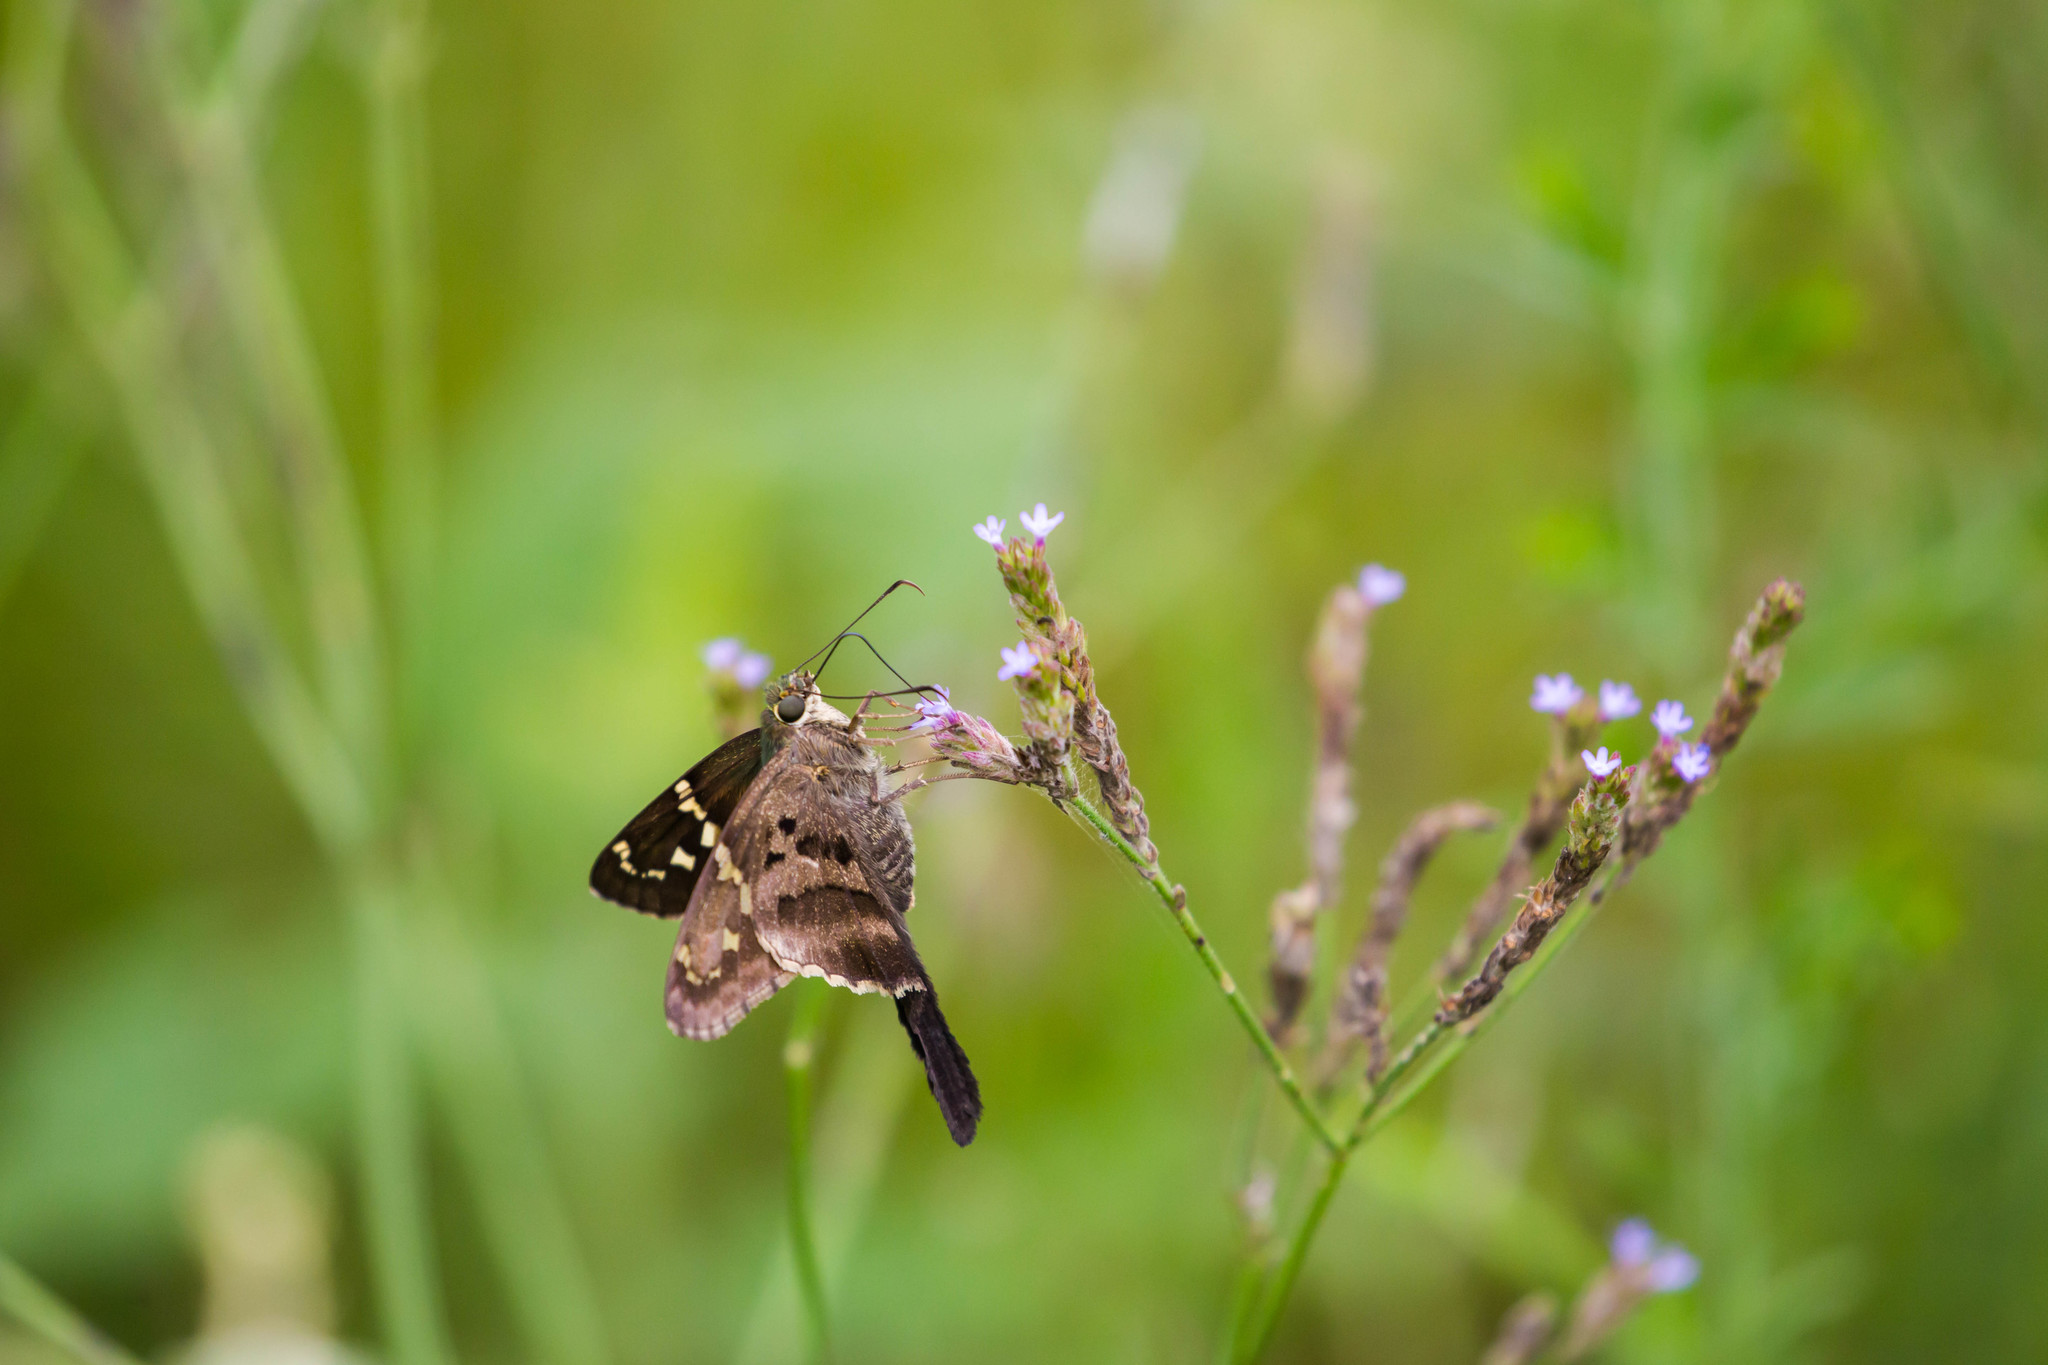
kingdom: Animalia
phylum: Arthropoda
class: Insecta
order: Lepidoptera
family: Hesperiidae
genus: Urbanus
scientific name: Urbanus proteus
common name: Long-tailed skipper
